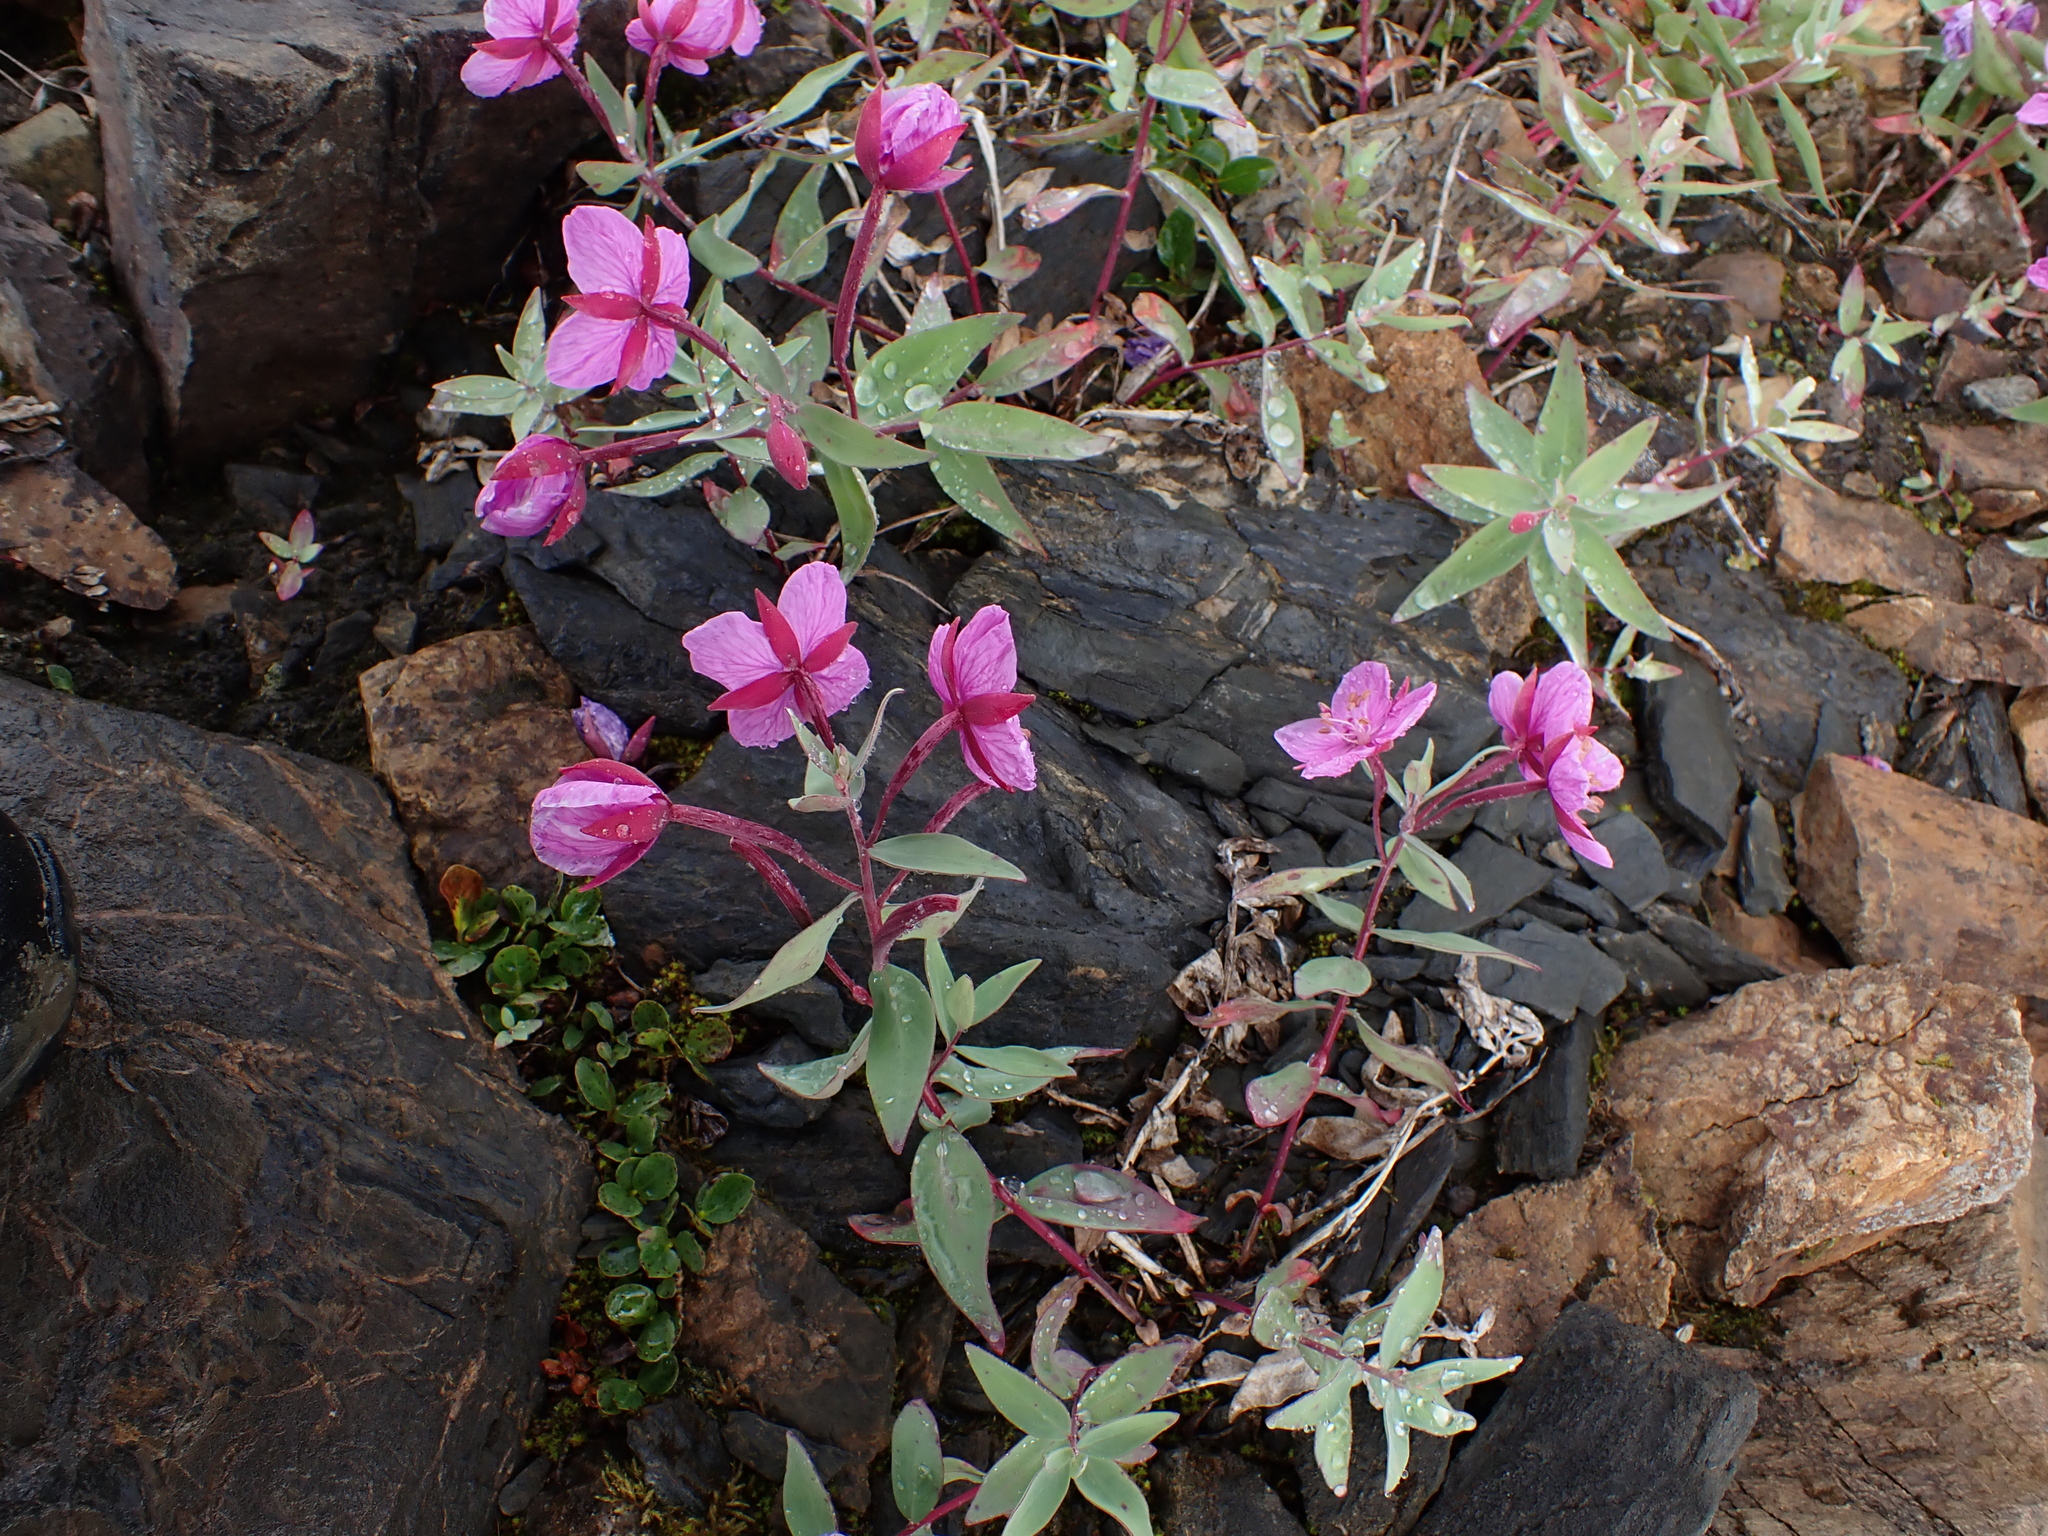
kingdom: Plantae
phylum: Tracheophyta
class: Magnoliopsida
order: Myrtales
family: Onagraceae
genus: Chamaenerion
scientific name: Chamaenerion latifolium
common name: Dwarf fireweed
